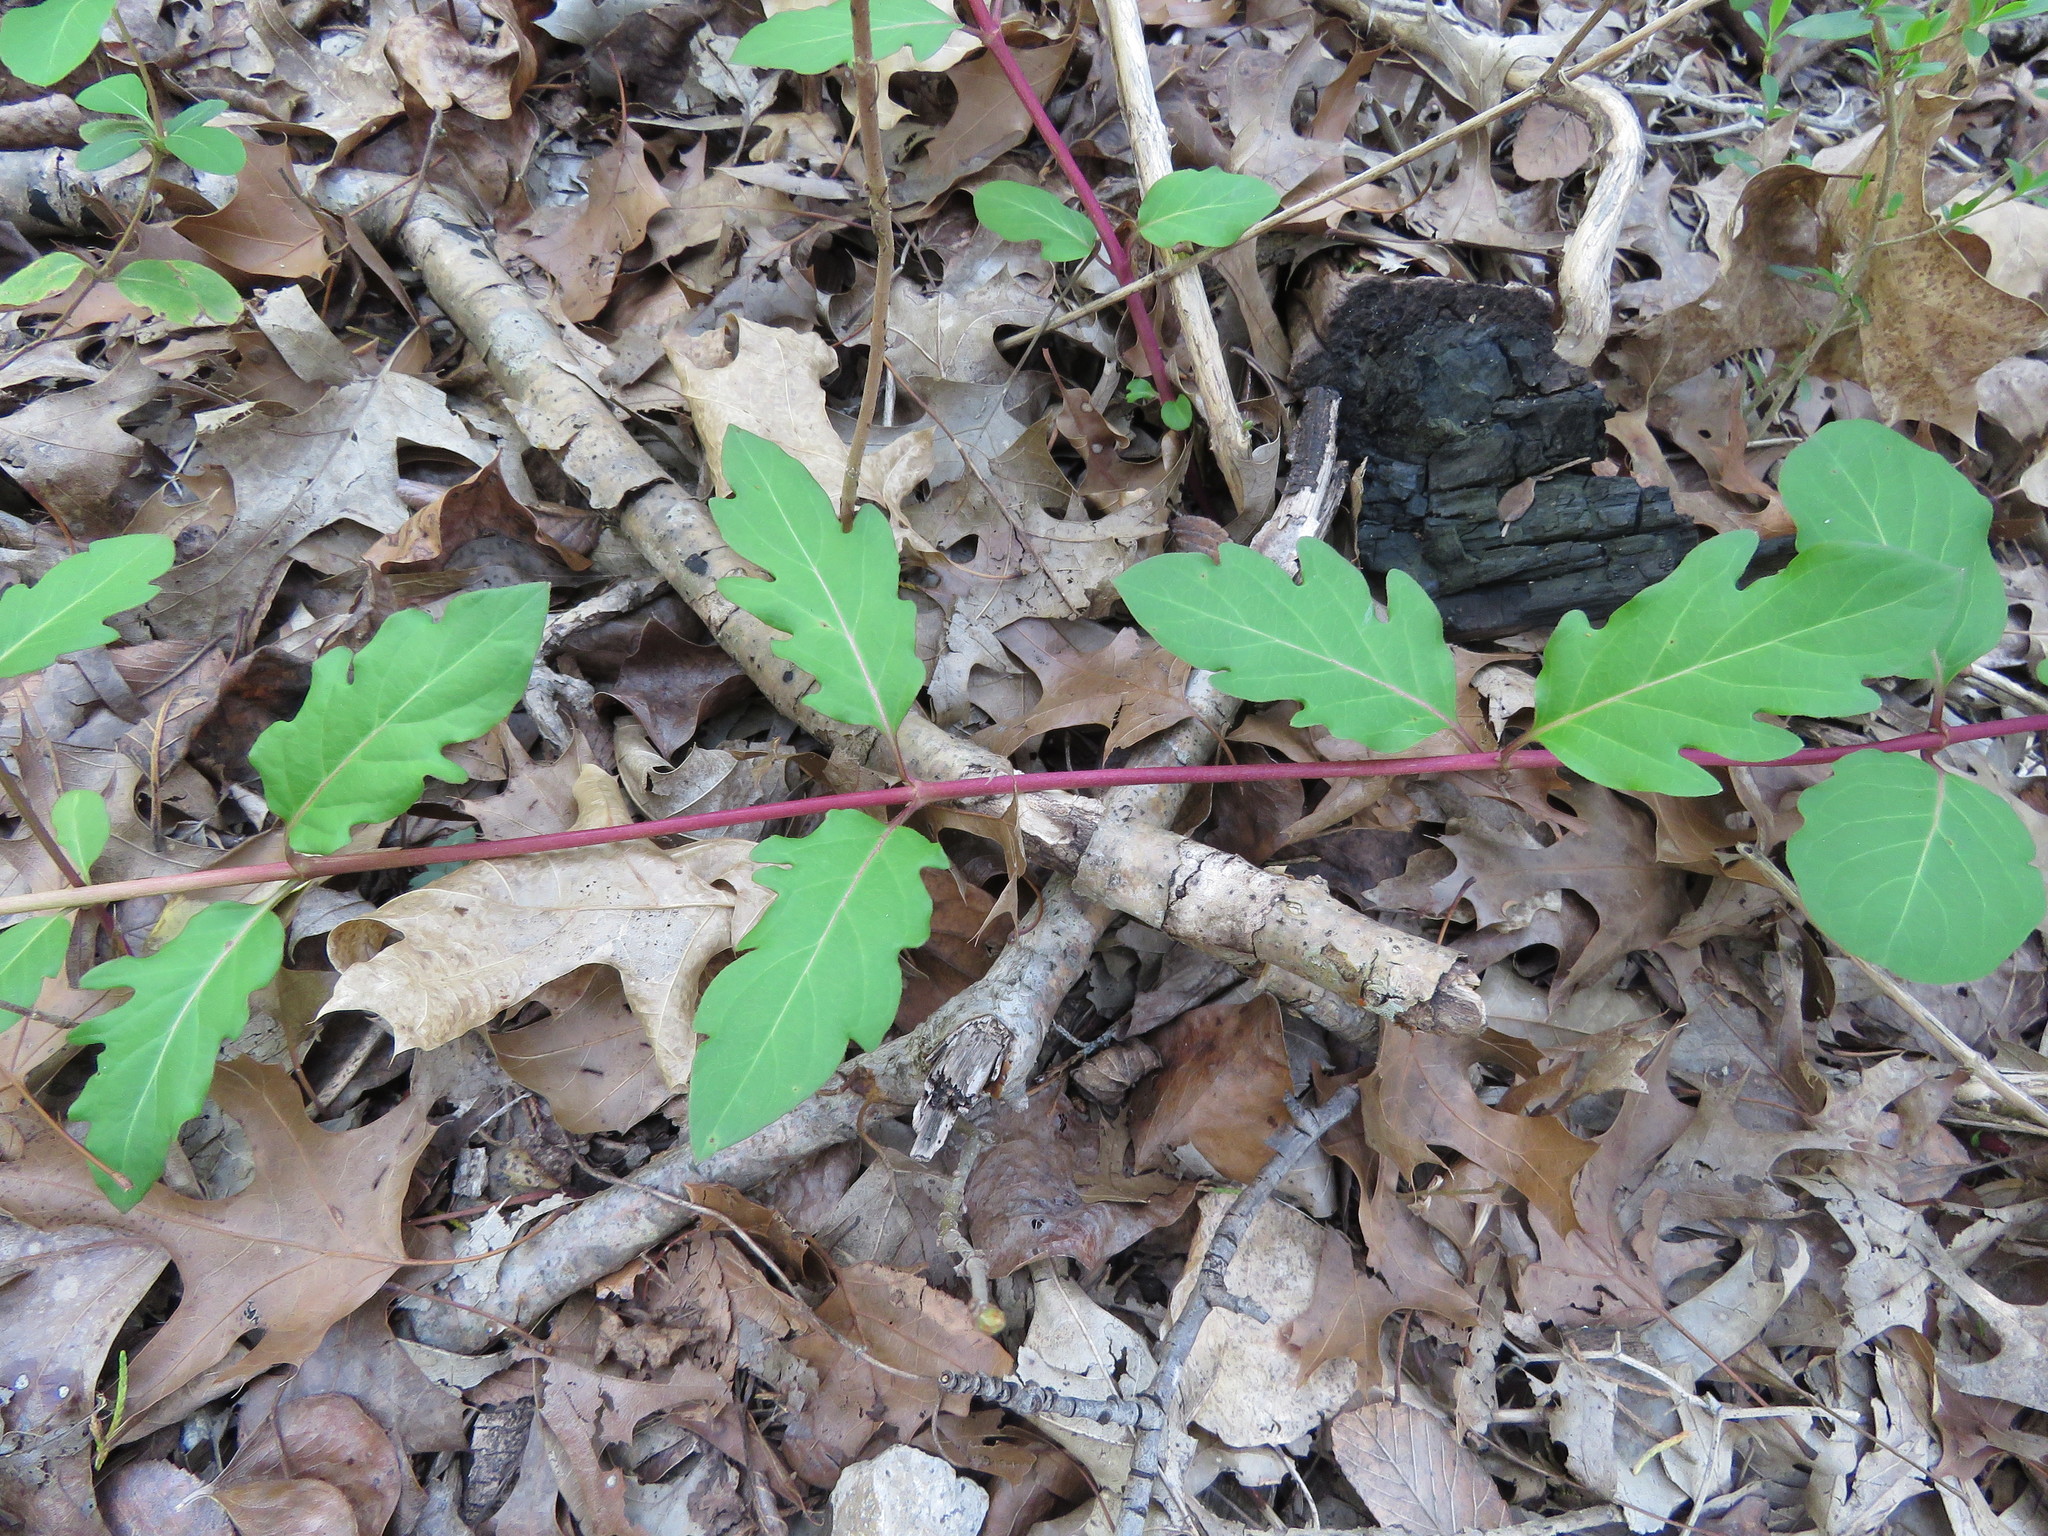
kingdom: Plantae
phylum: Tracheophyta
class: Magnoliopsida
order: Dipsacales
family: Caprifoliaceae
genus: Lonicera
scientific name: Lonicera japonica
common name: Japanese honeysuckle
